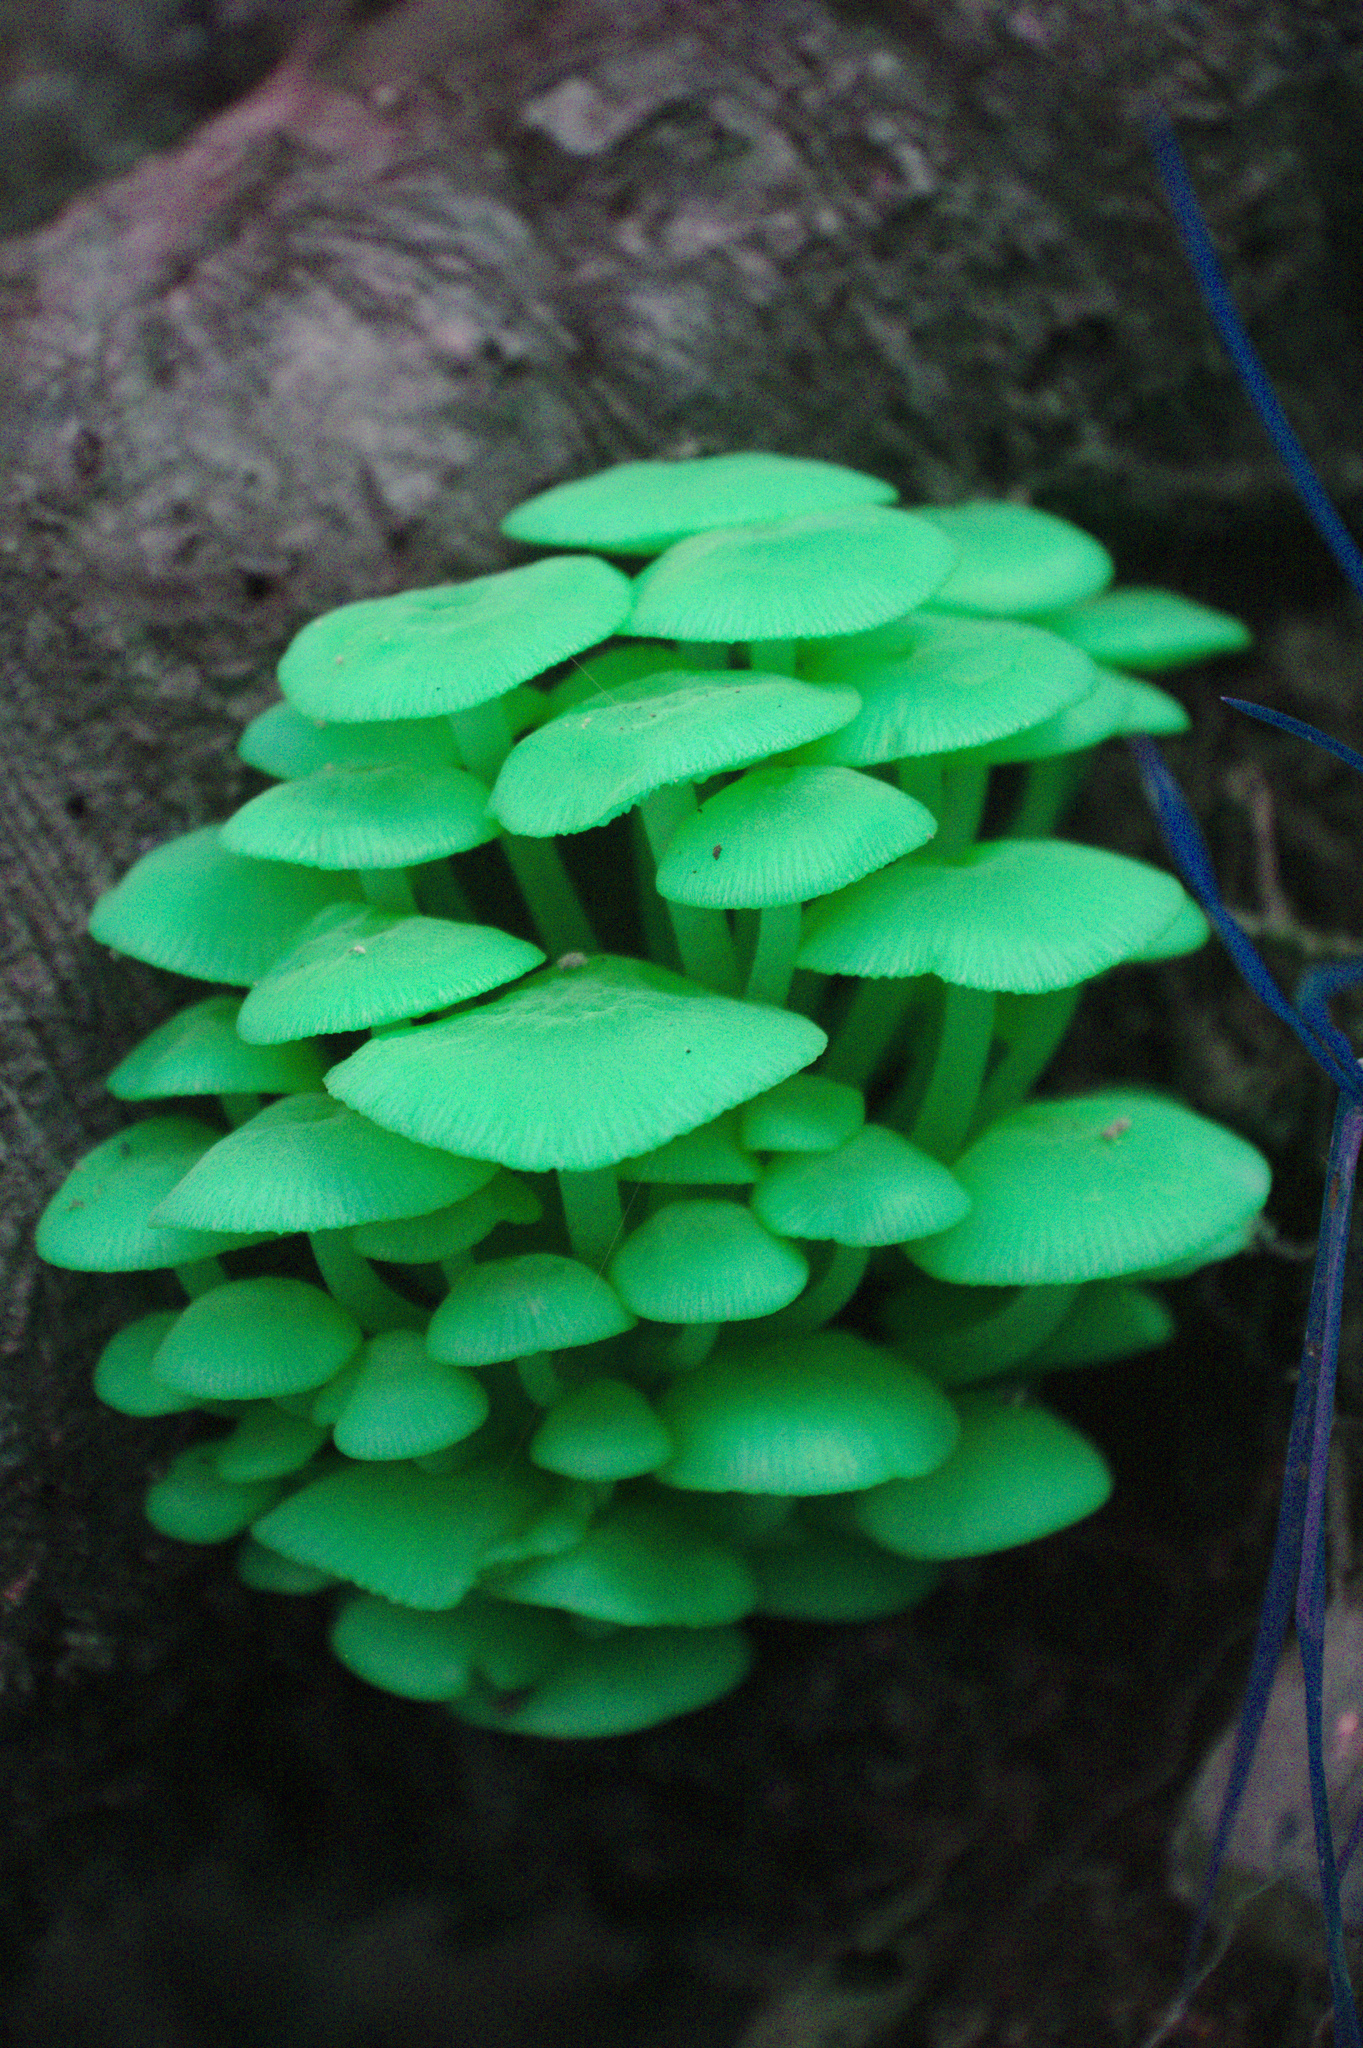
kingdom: Fungi
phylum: Basidiomycota
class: Agaricomycetes
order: Agaricales
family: Mycenaceae
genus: Mycena
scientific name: Mycena leaiana
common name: Orange mycena
